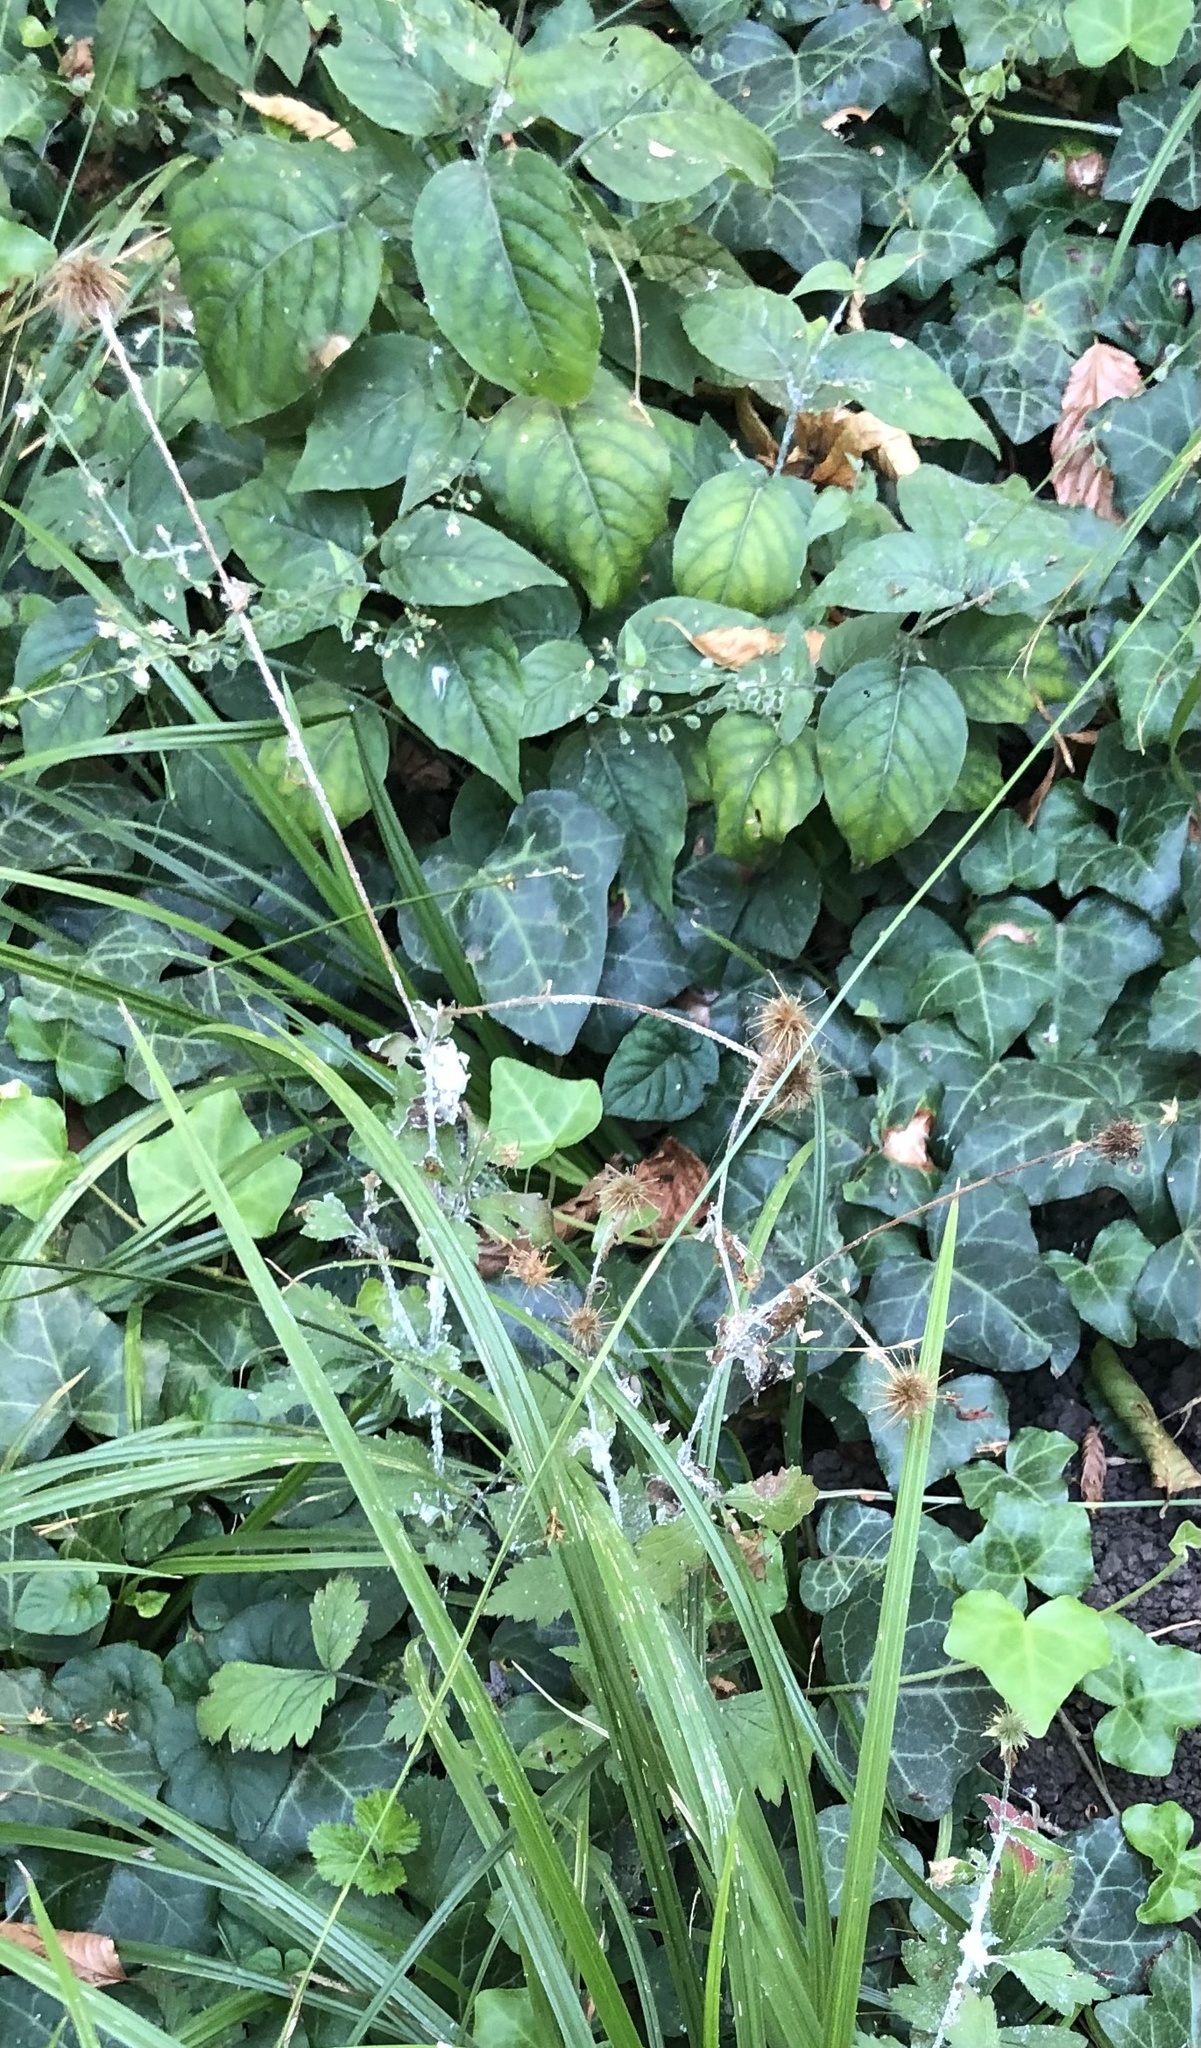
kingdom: Plantae
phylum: Tracheophyta
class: Magnoliopsida
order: Rosales
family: Rosaceae
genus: Geum
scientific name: Geum urbanum
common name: Wood avens
